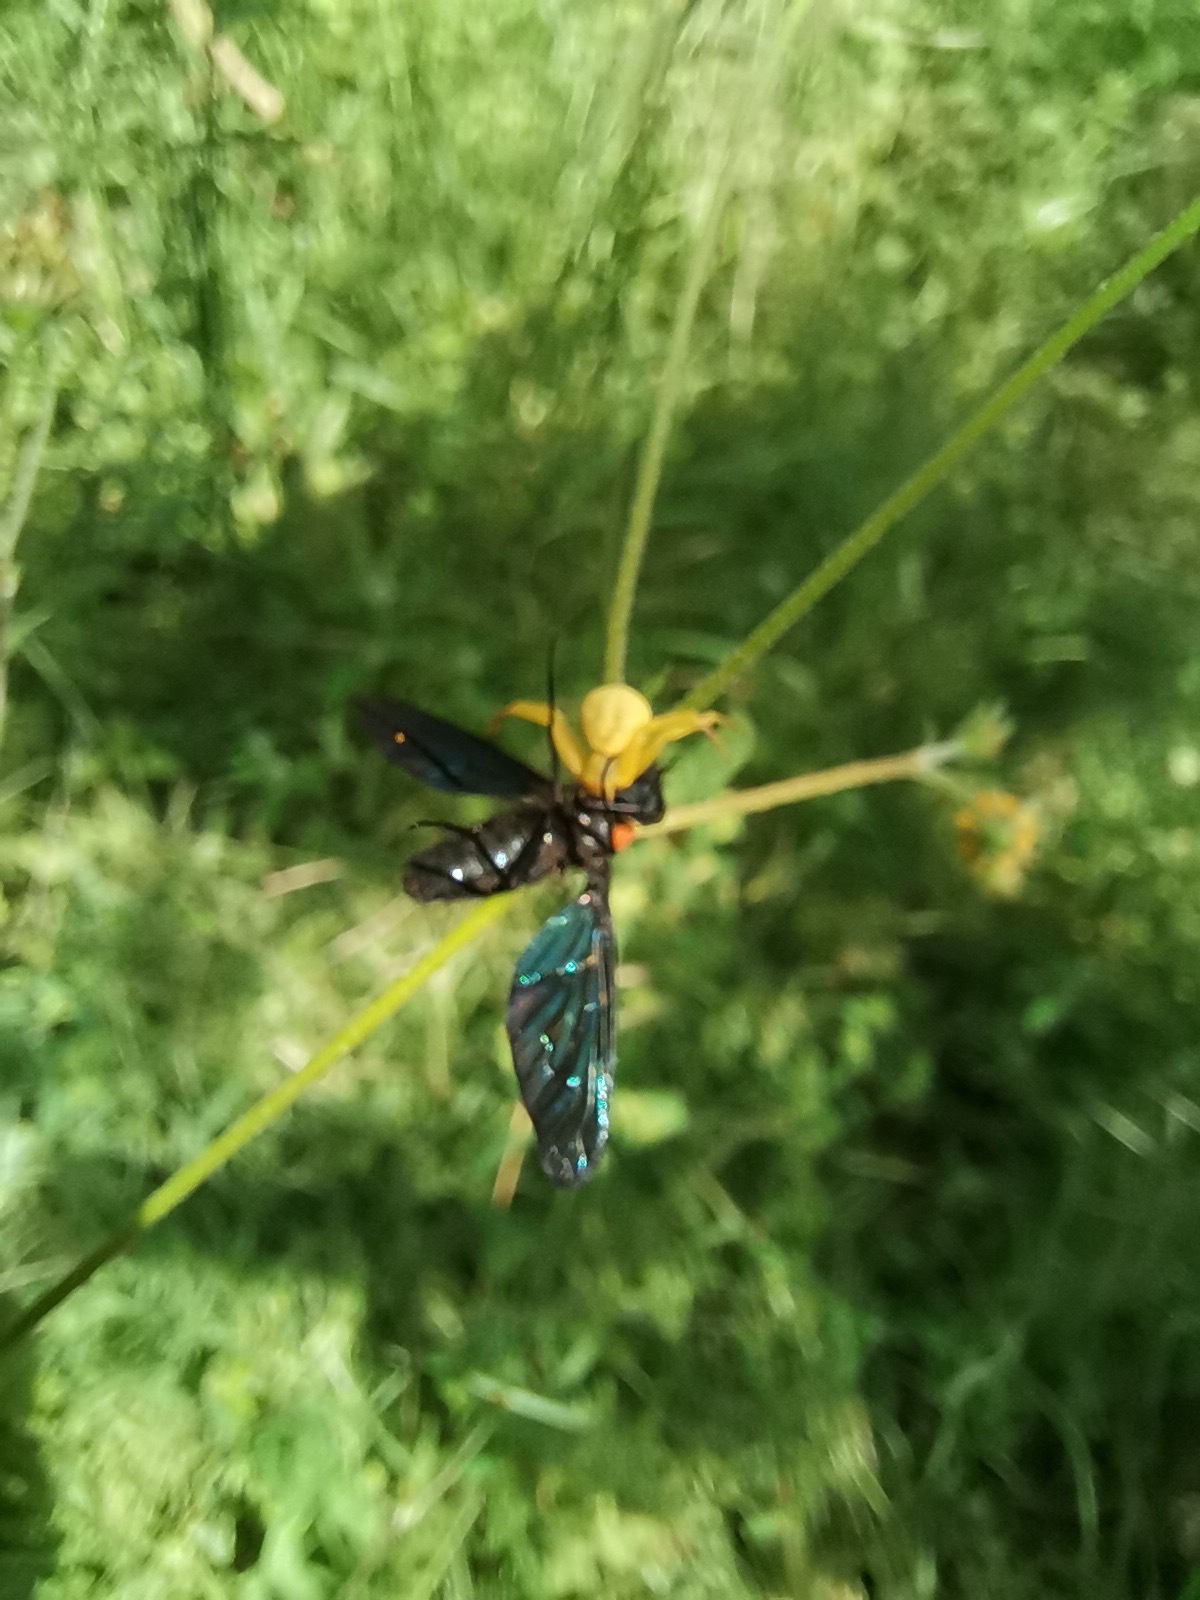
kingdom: Animalia
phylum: Arthropoda
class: Insecta
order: Diptera
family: Bombyliidae
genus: Cyananthrax
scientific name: Cyananthrax cyanoptera
